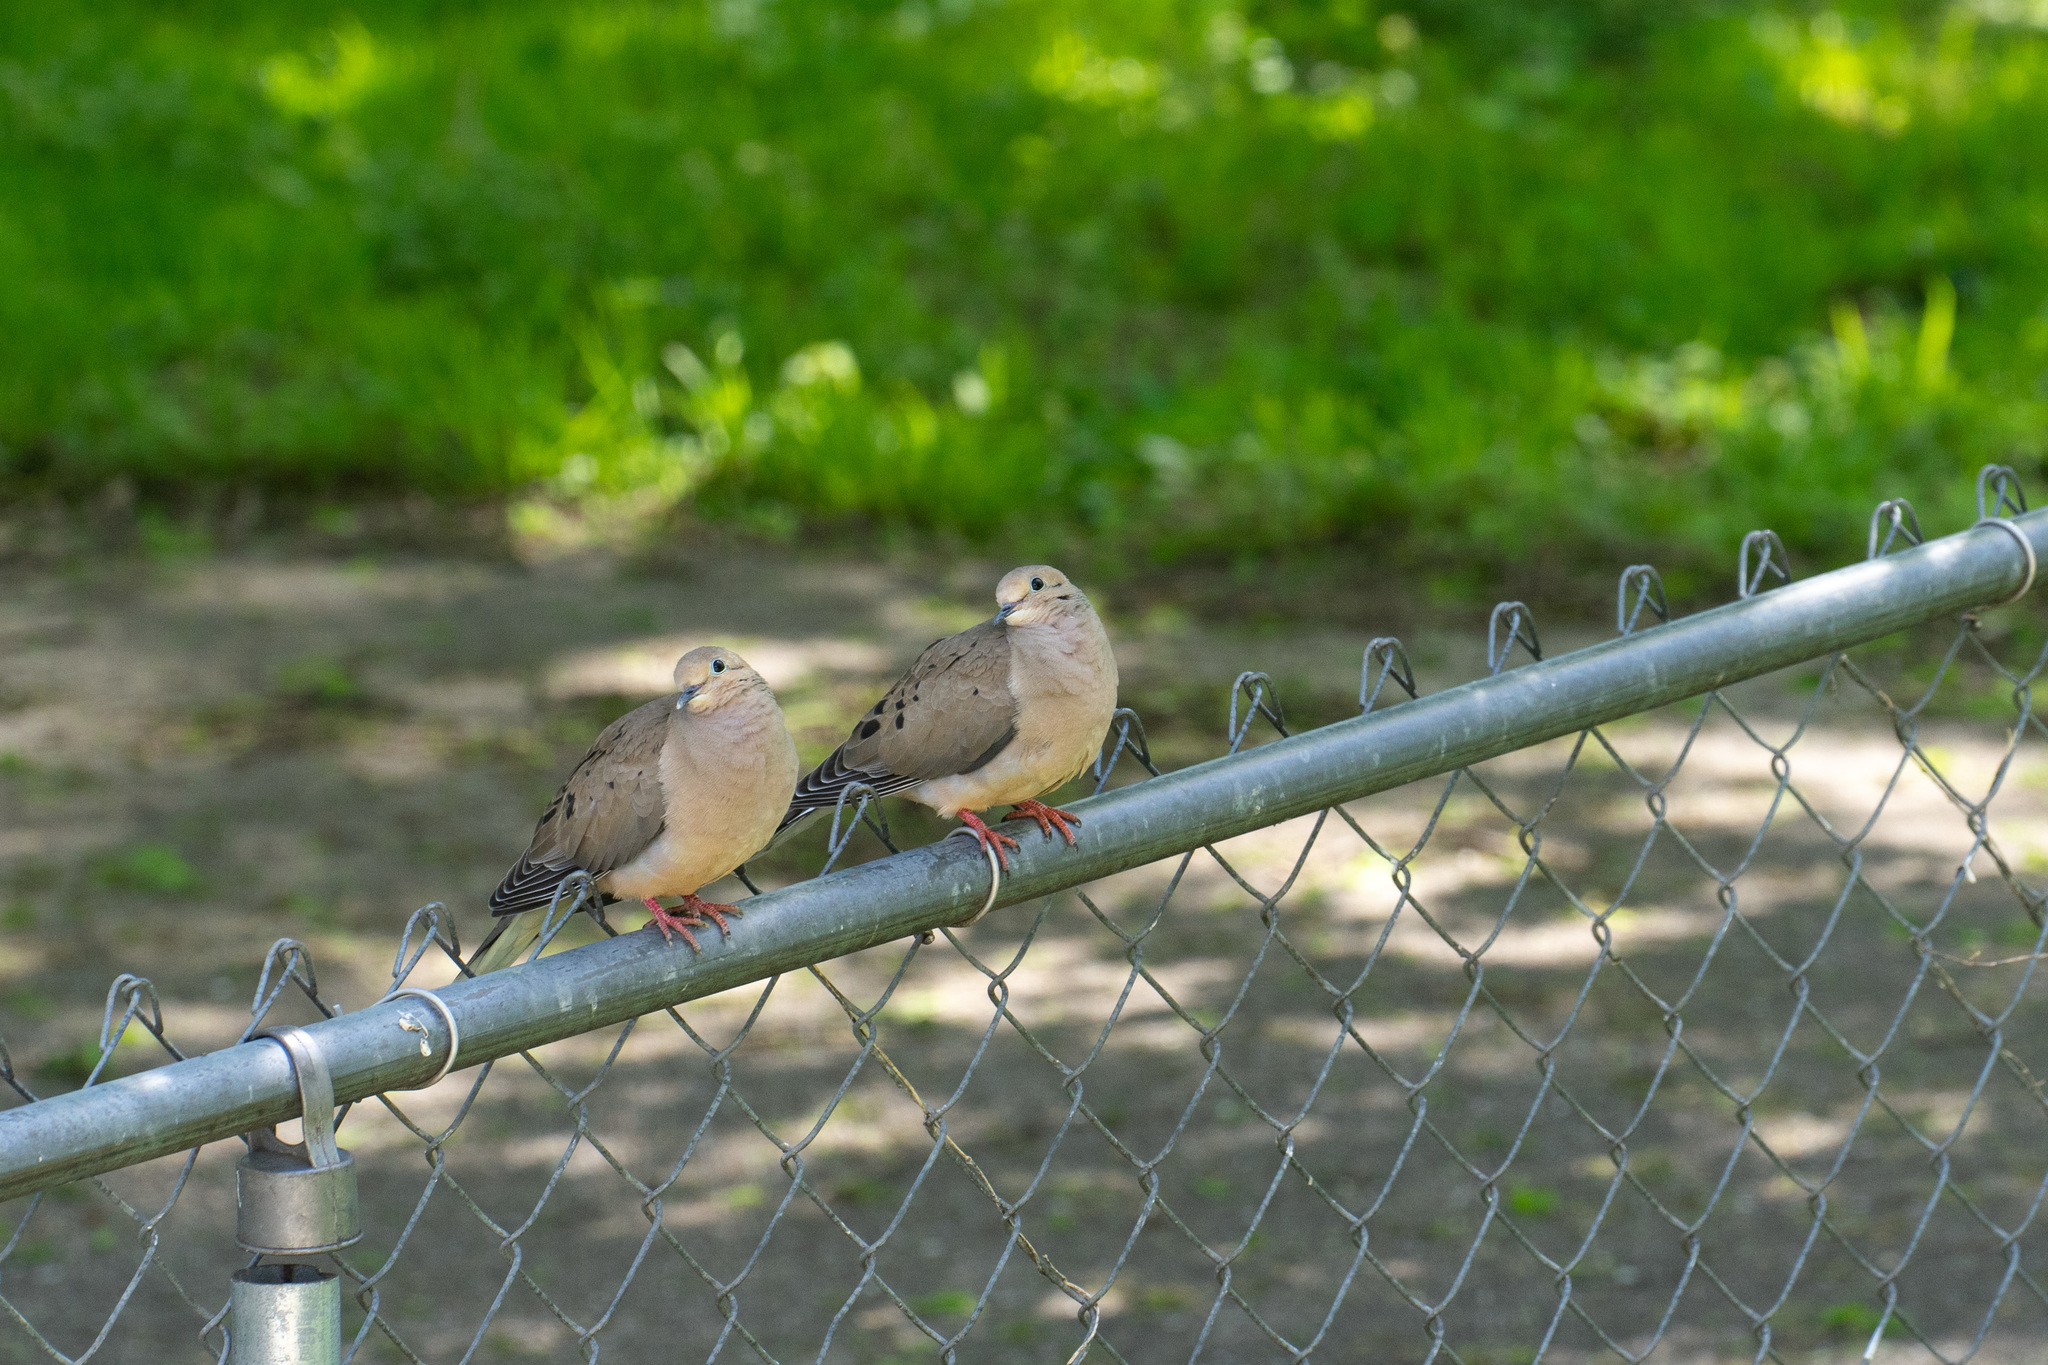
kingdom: Animalia
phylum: Chordata
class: Aves
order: Columbiformes
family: Columbidae
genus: Zenaida
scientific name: Zenaida macroura
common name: Mourning dove
